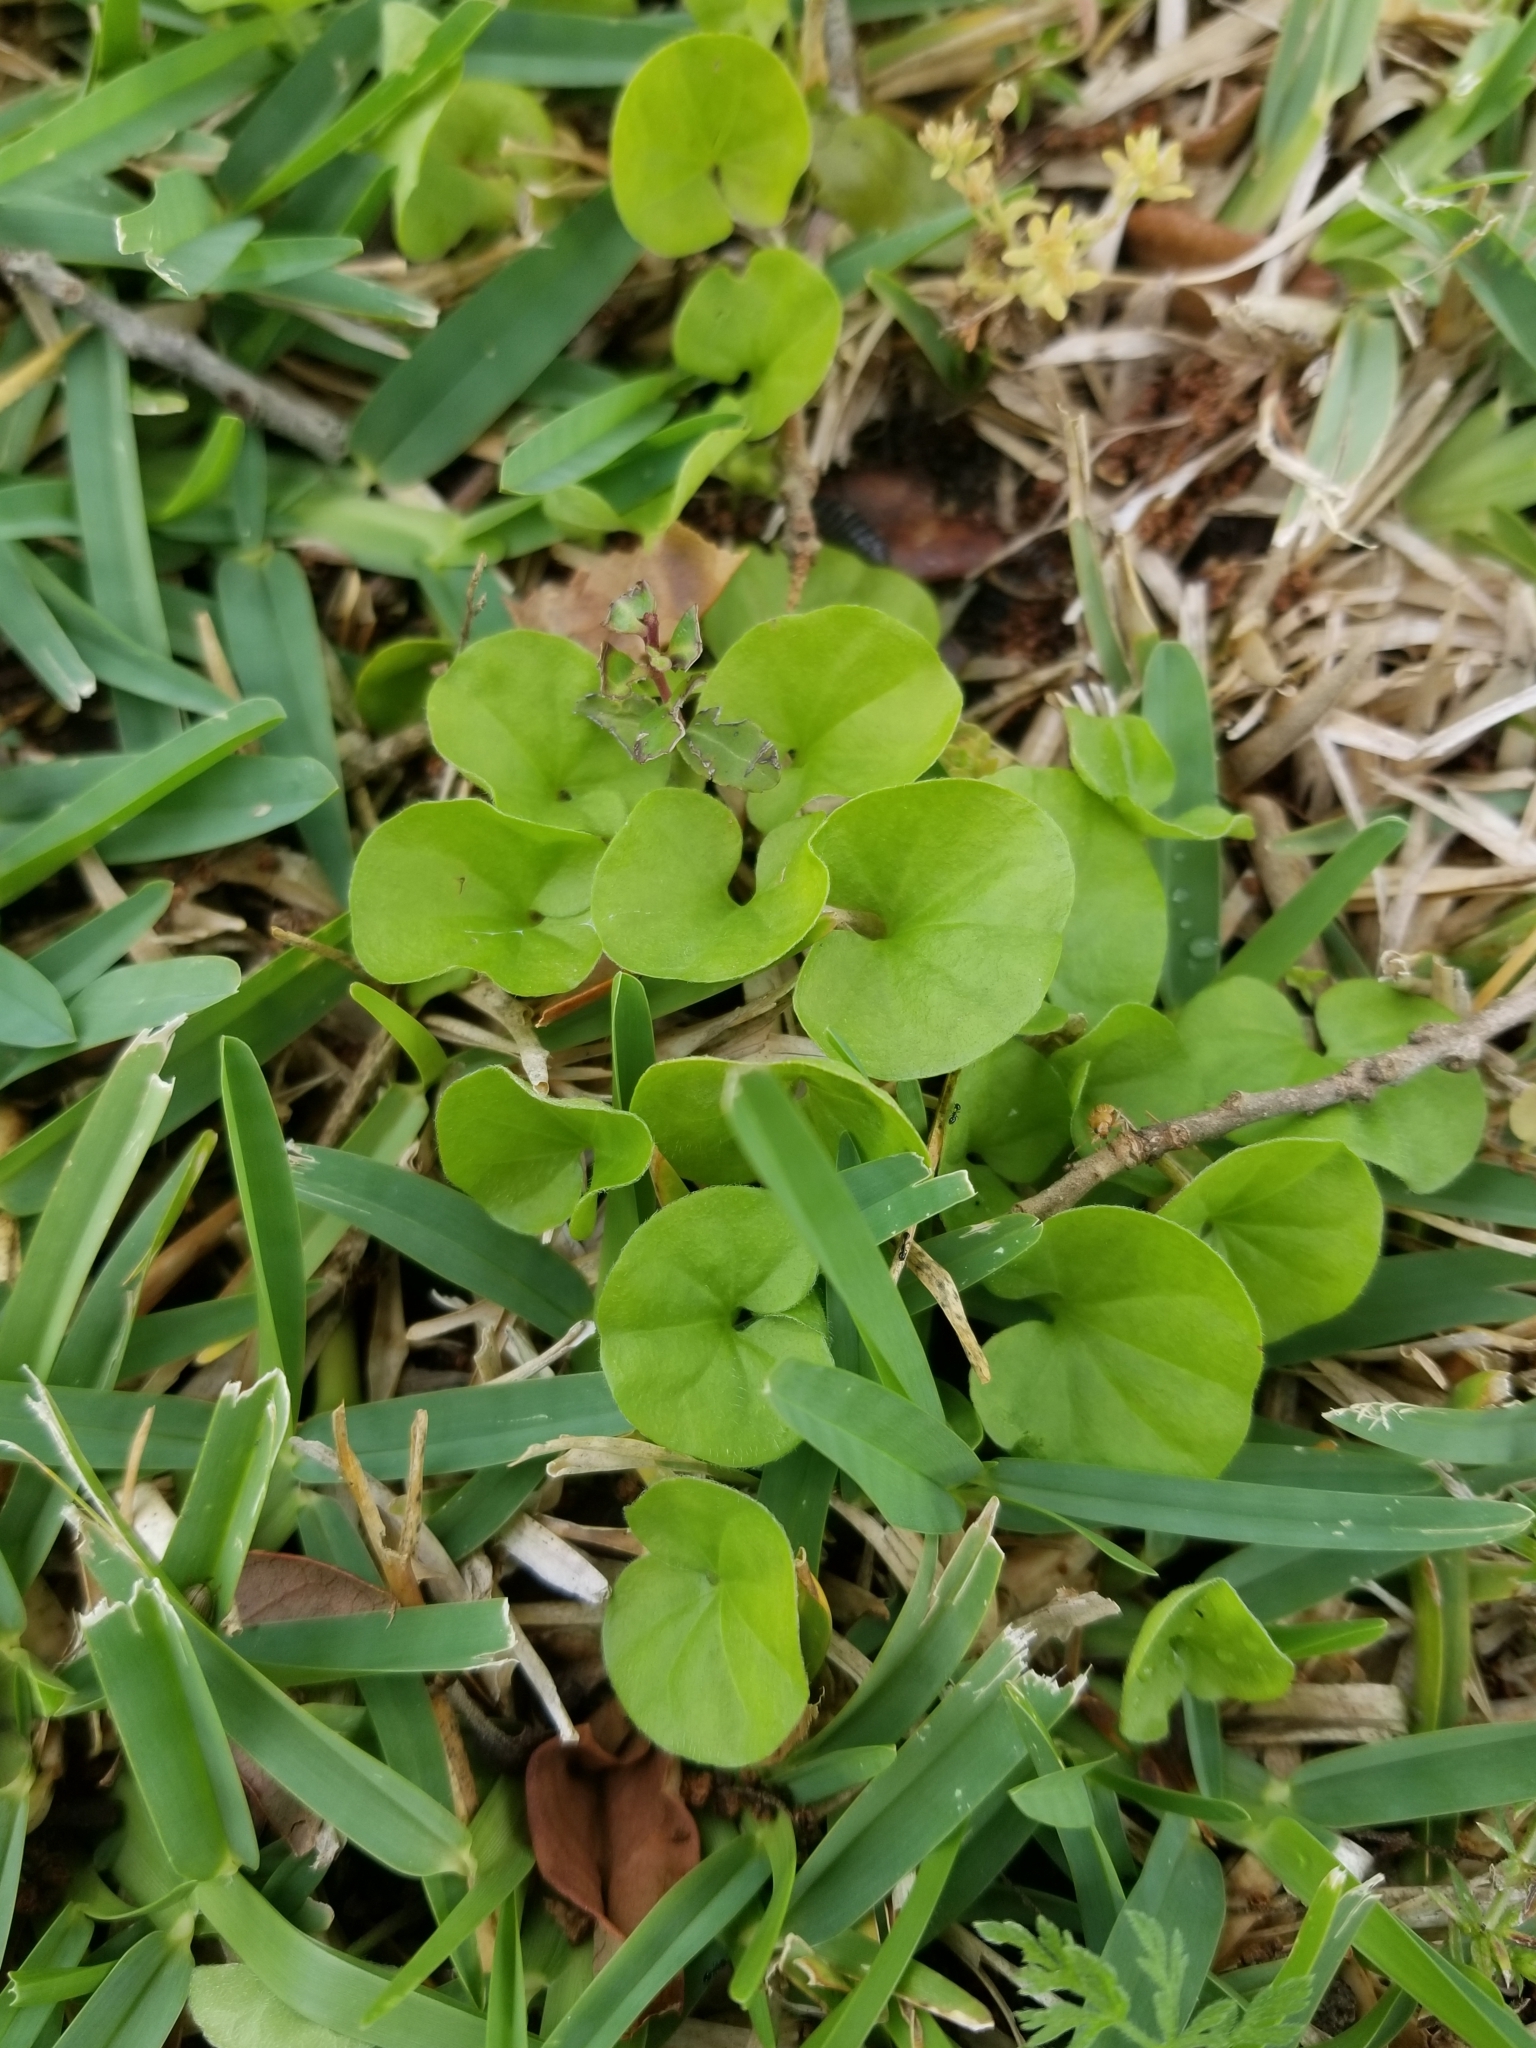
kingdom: Plantae
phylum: Tracheophyta
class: Magnoliopsida
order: Solanales
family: Convolvulaceae
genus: Dichondra
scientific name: Dichondra carolinensis
